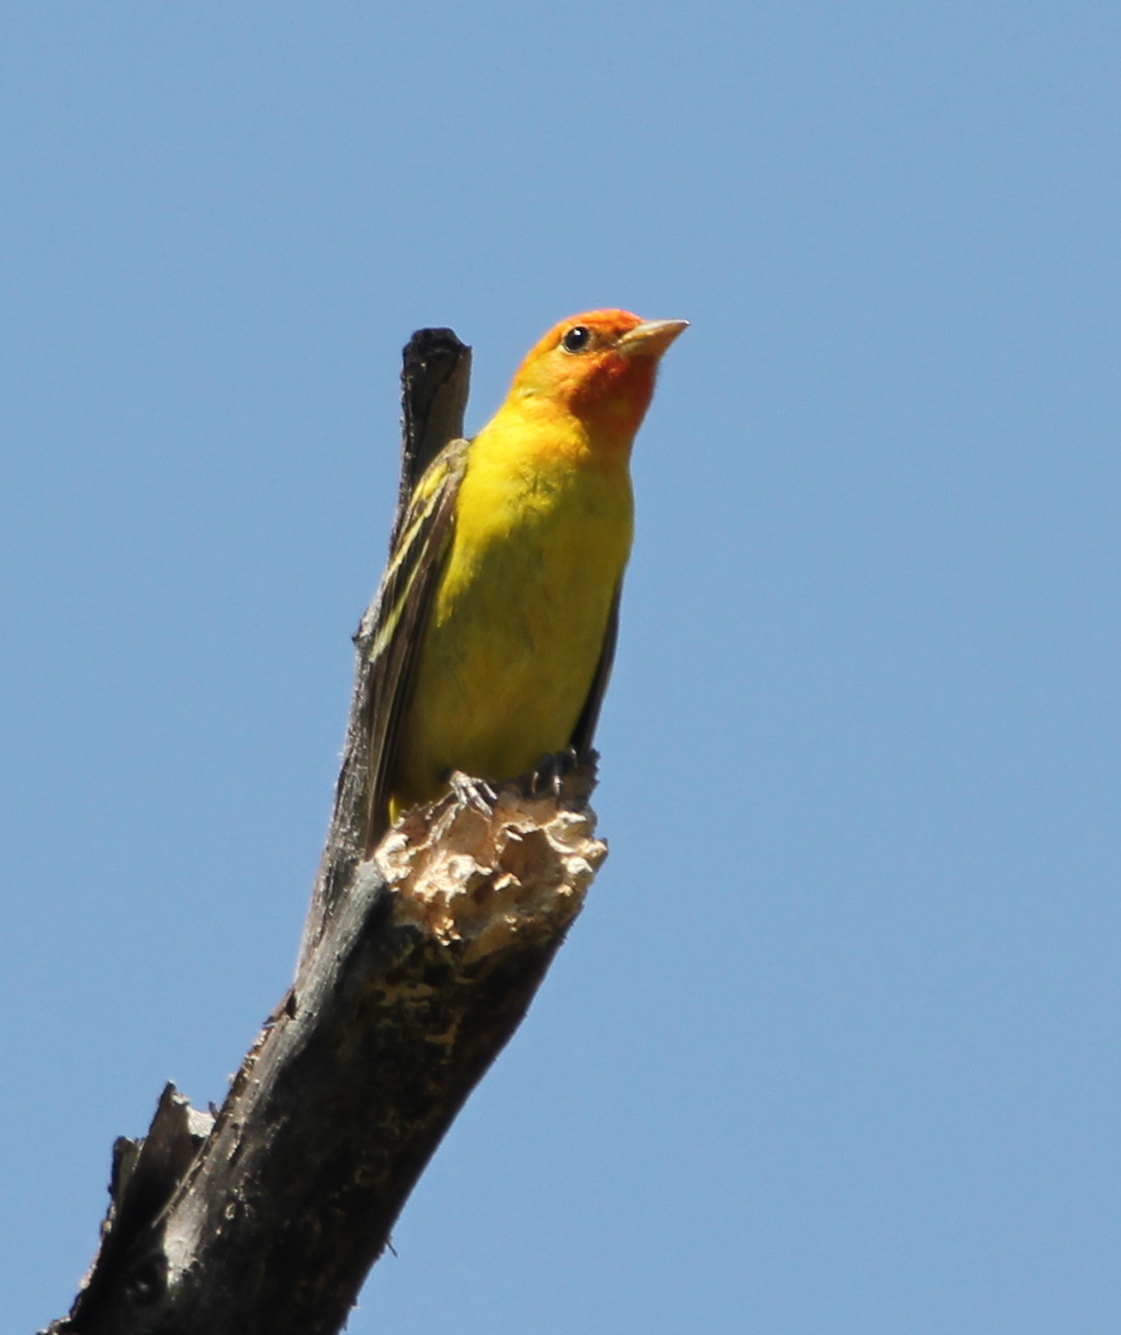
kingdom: Animalia
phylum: Chordata
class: Aves
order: Passeriformes
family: Cardinalidae
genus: Piranga
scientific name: Piranga ludoviciana
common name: Western tanager
